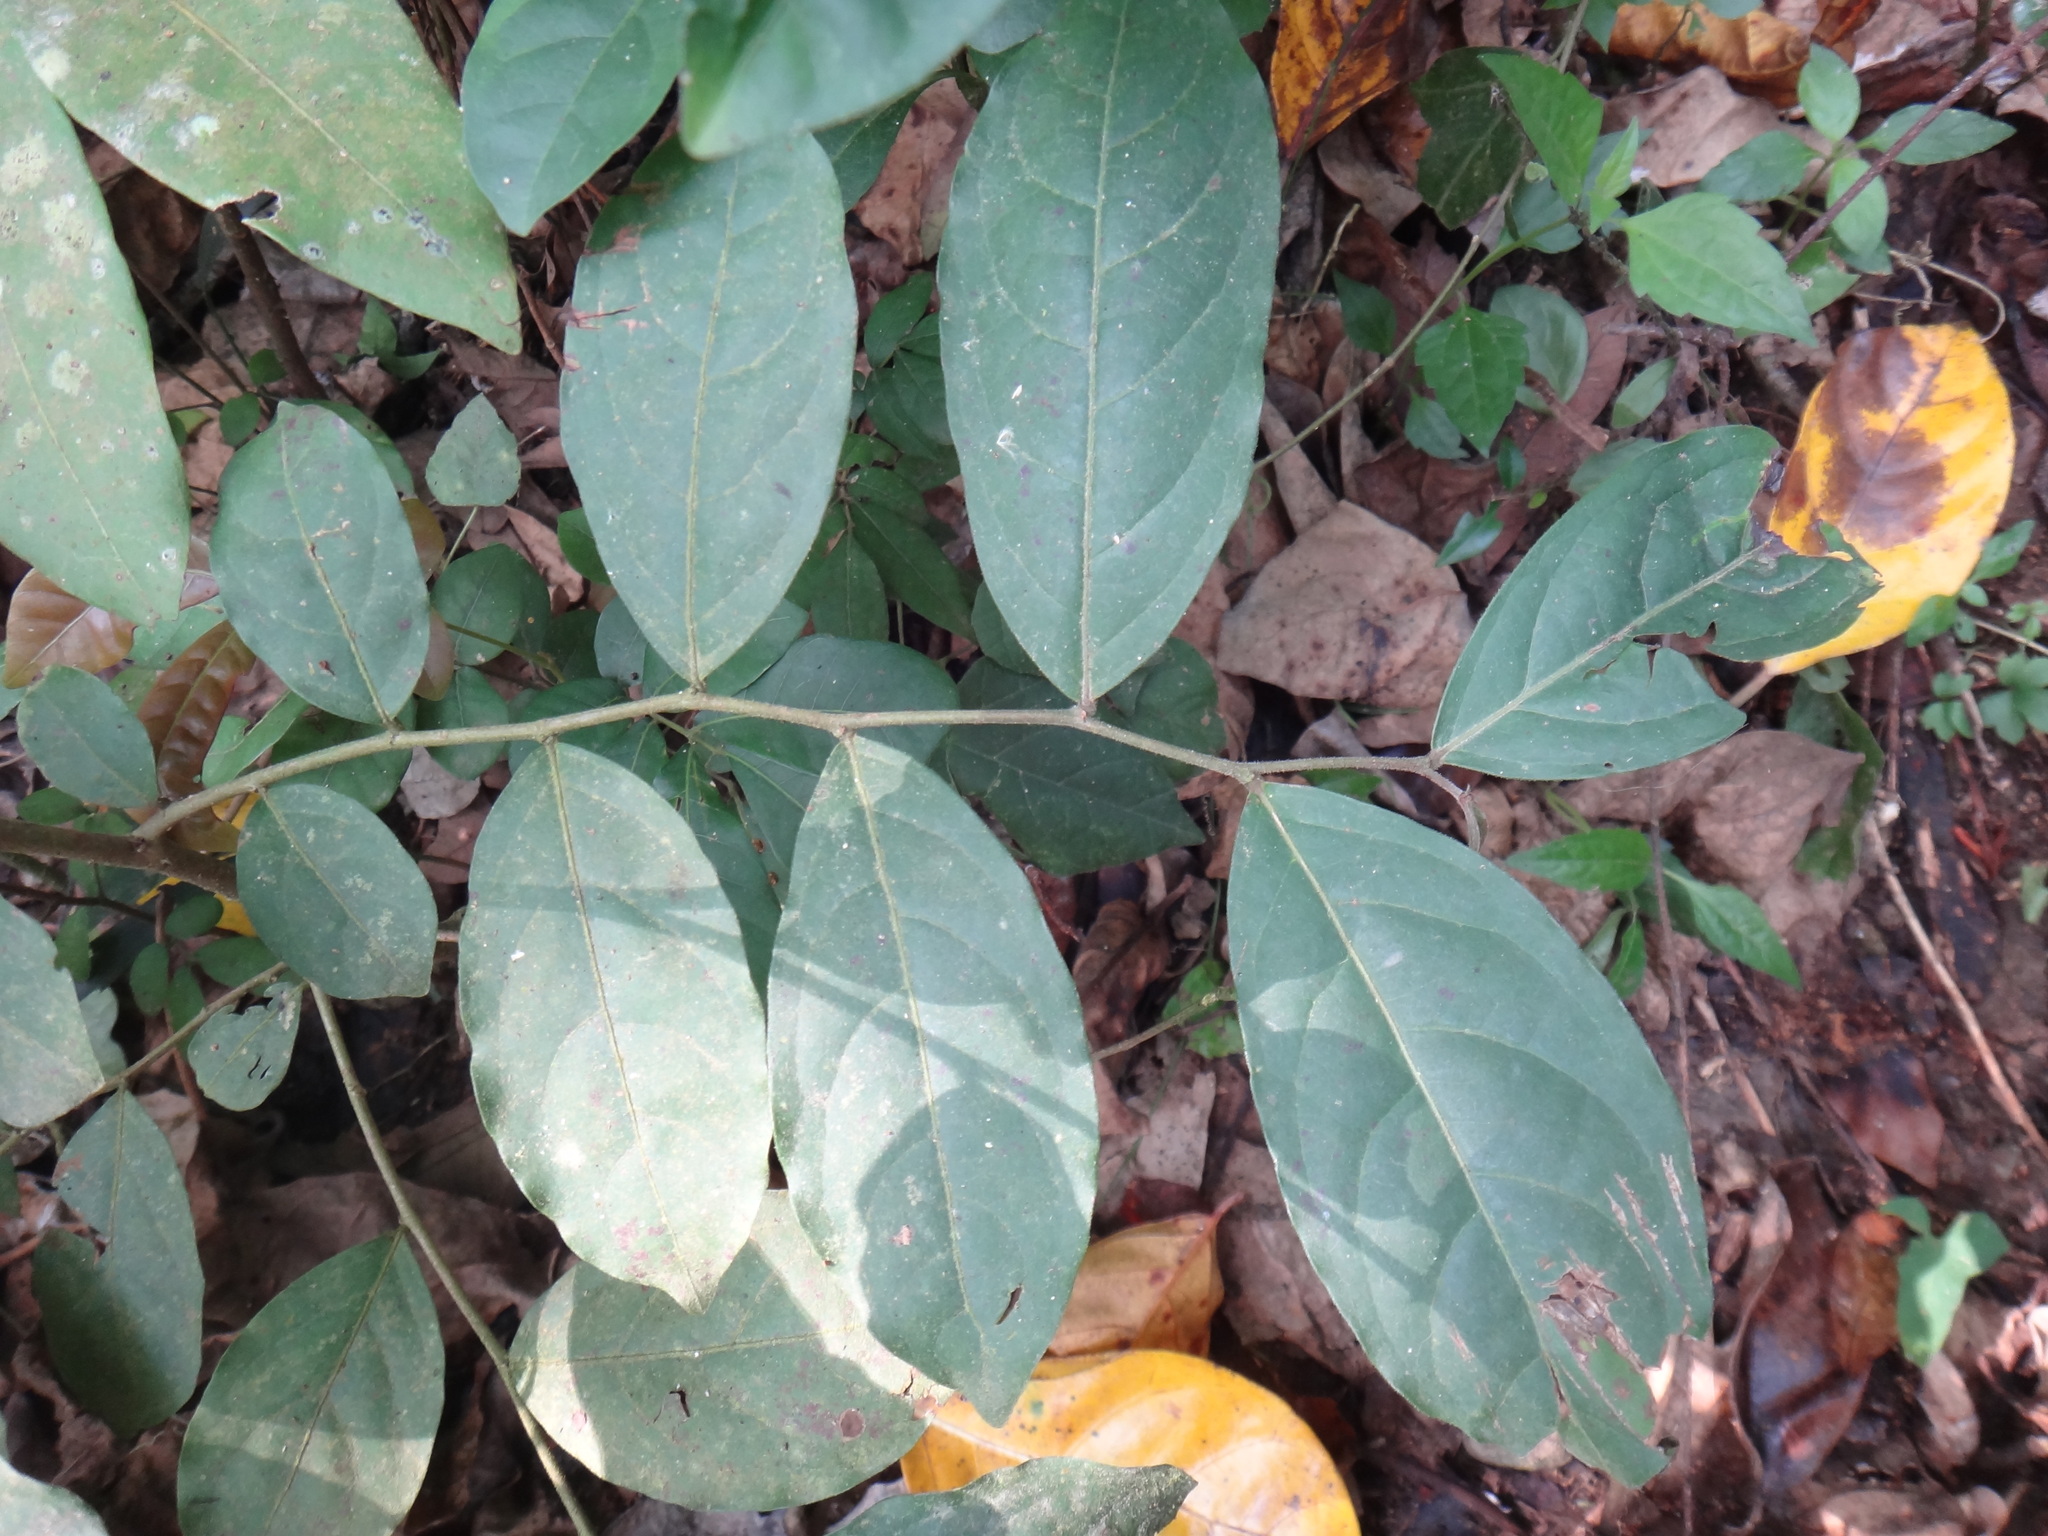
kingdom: Plantae
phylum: Tracheophyta
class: Magnoliopsida
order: Malpighiales
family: Phyllanthaceae
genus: Glochidion
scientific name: Glochidion philippicum
